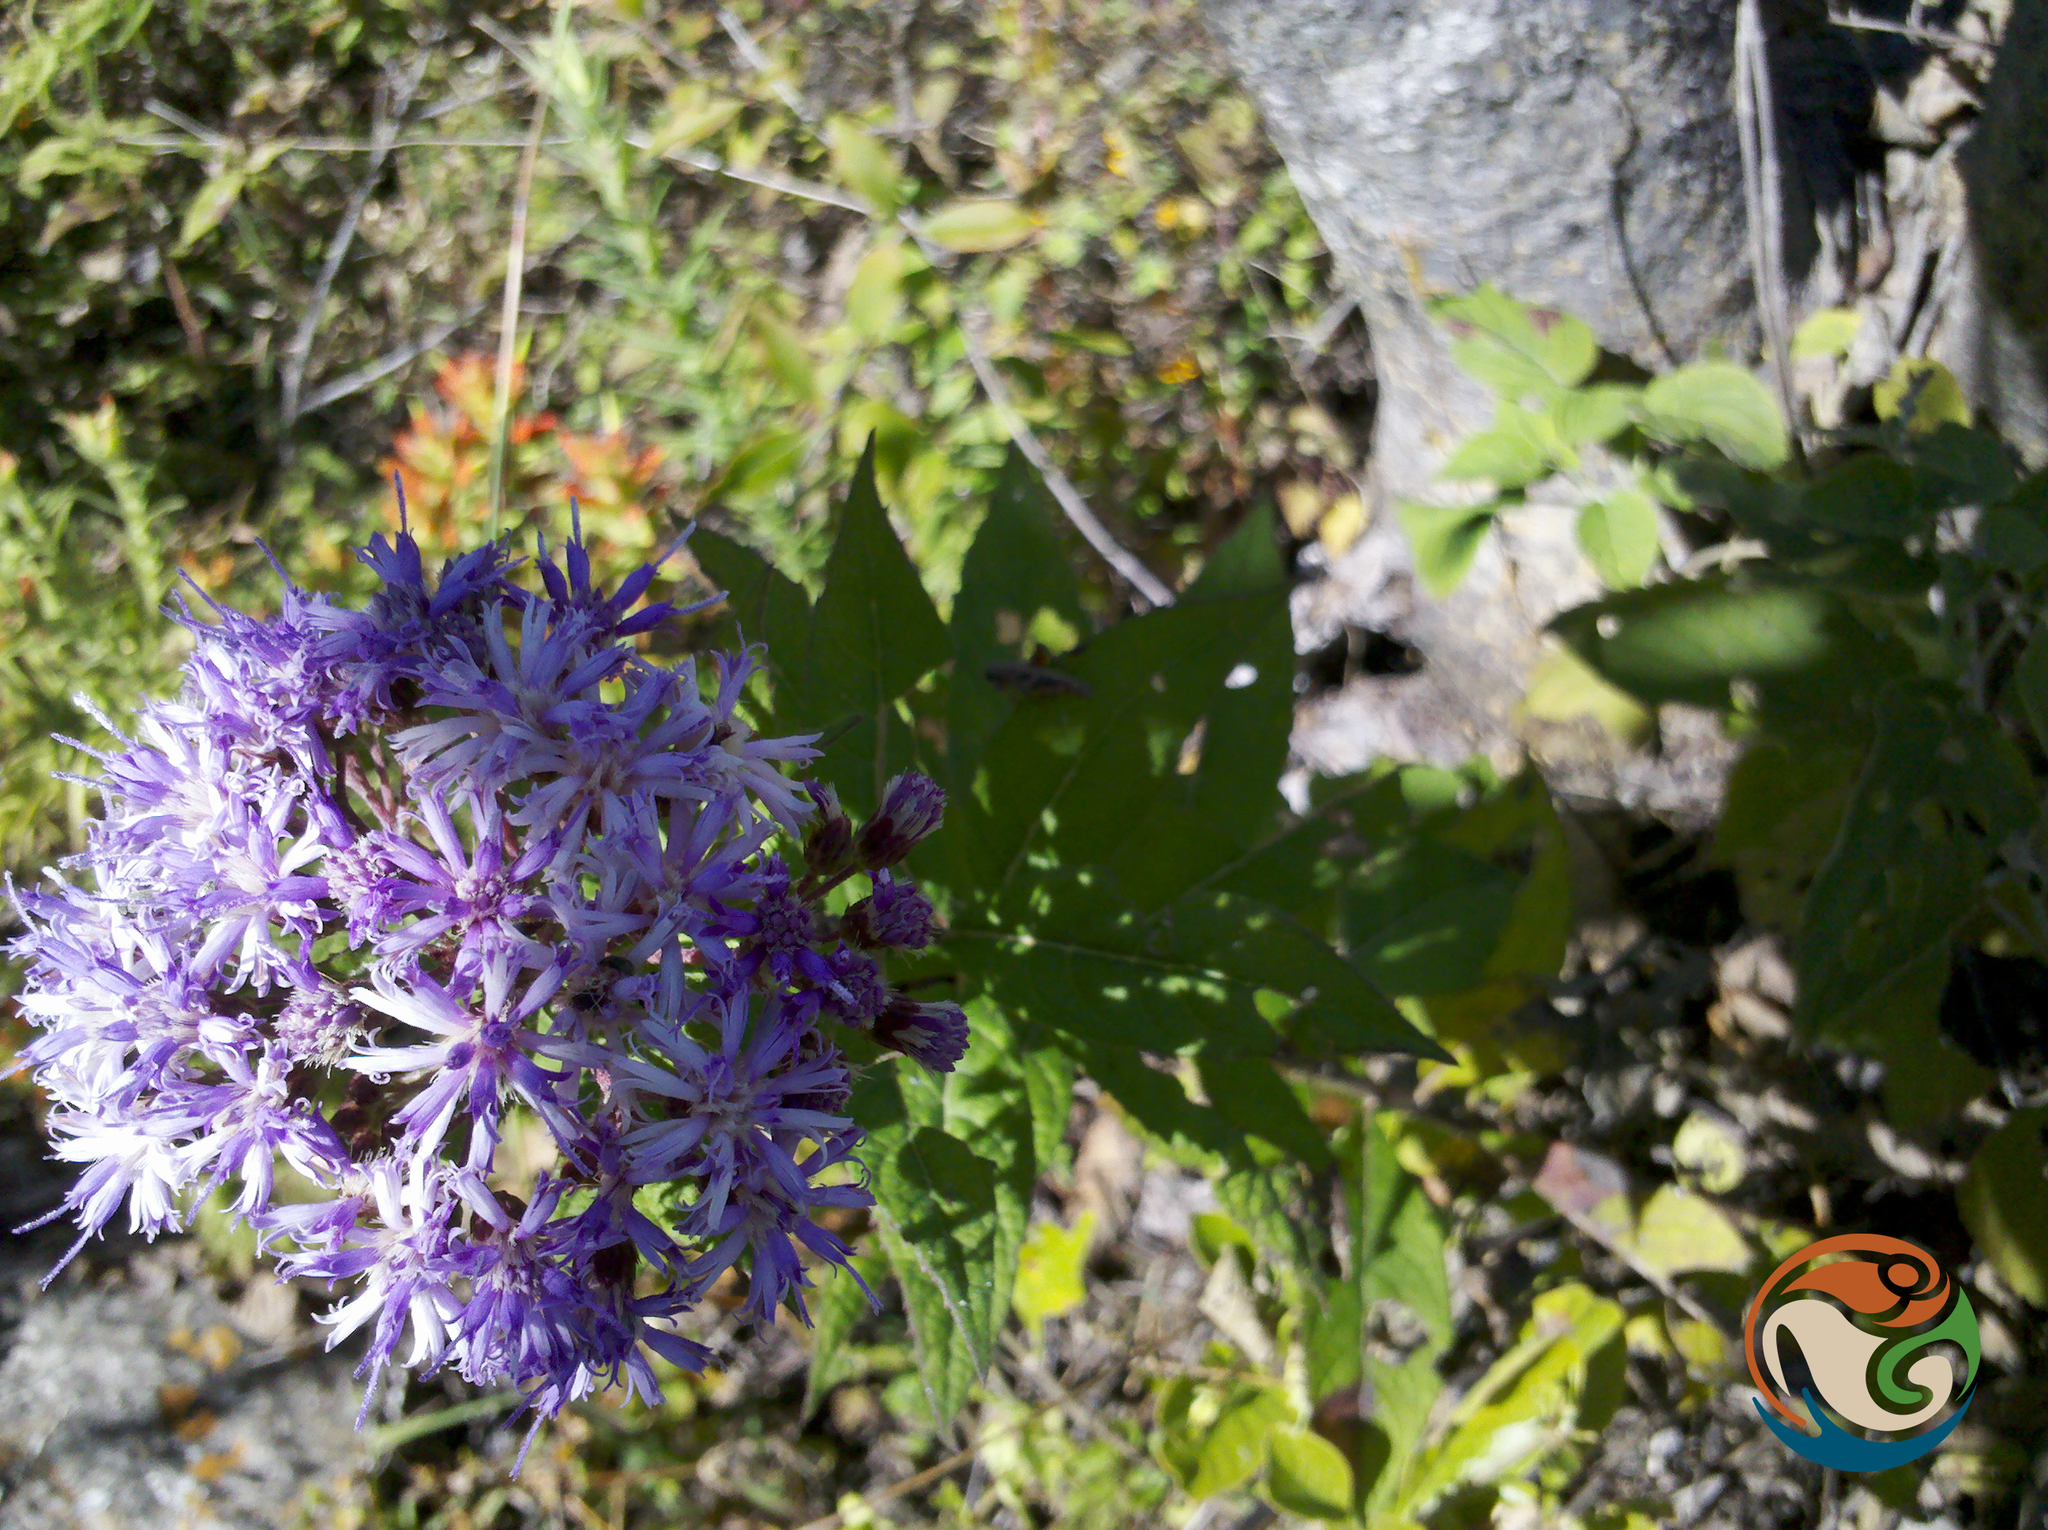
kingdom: Plantae
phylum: Tracheophyta
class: Magnoliopsida
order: Asterales
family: Asteraceae
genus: Vernonia
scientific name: Vernonia karvinskiana
